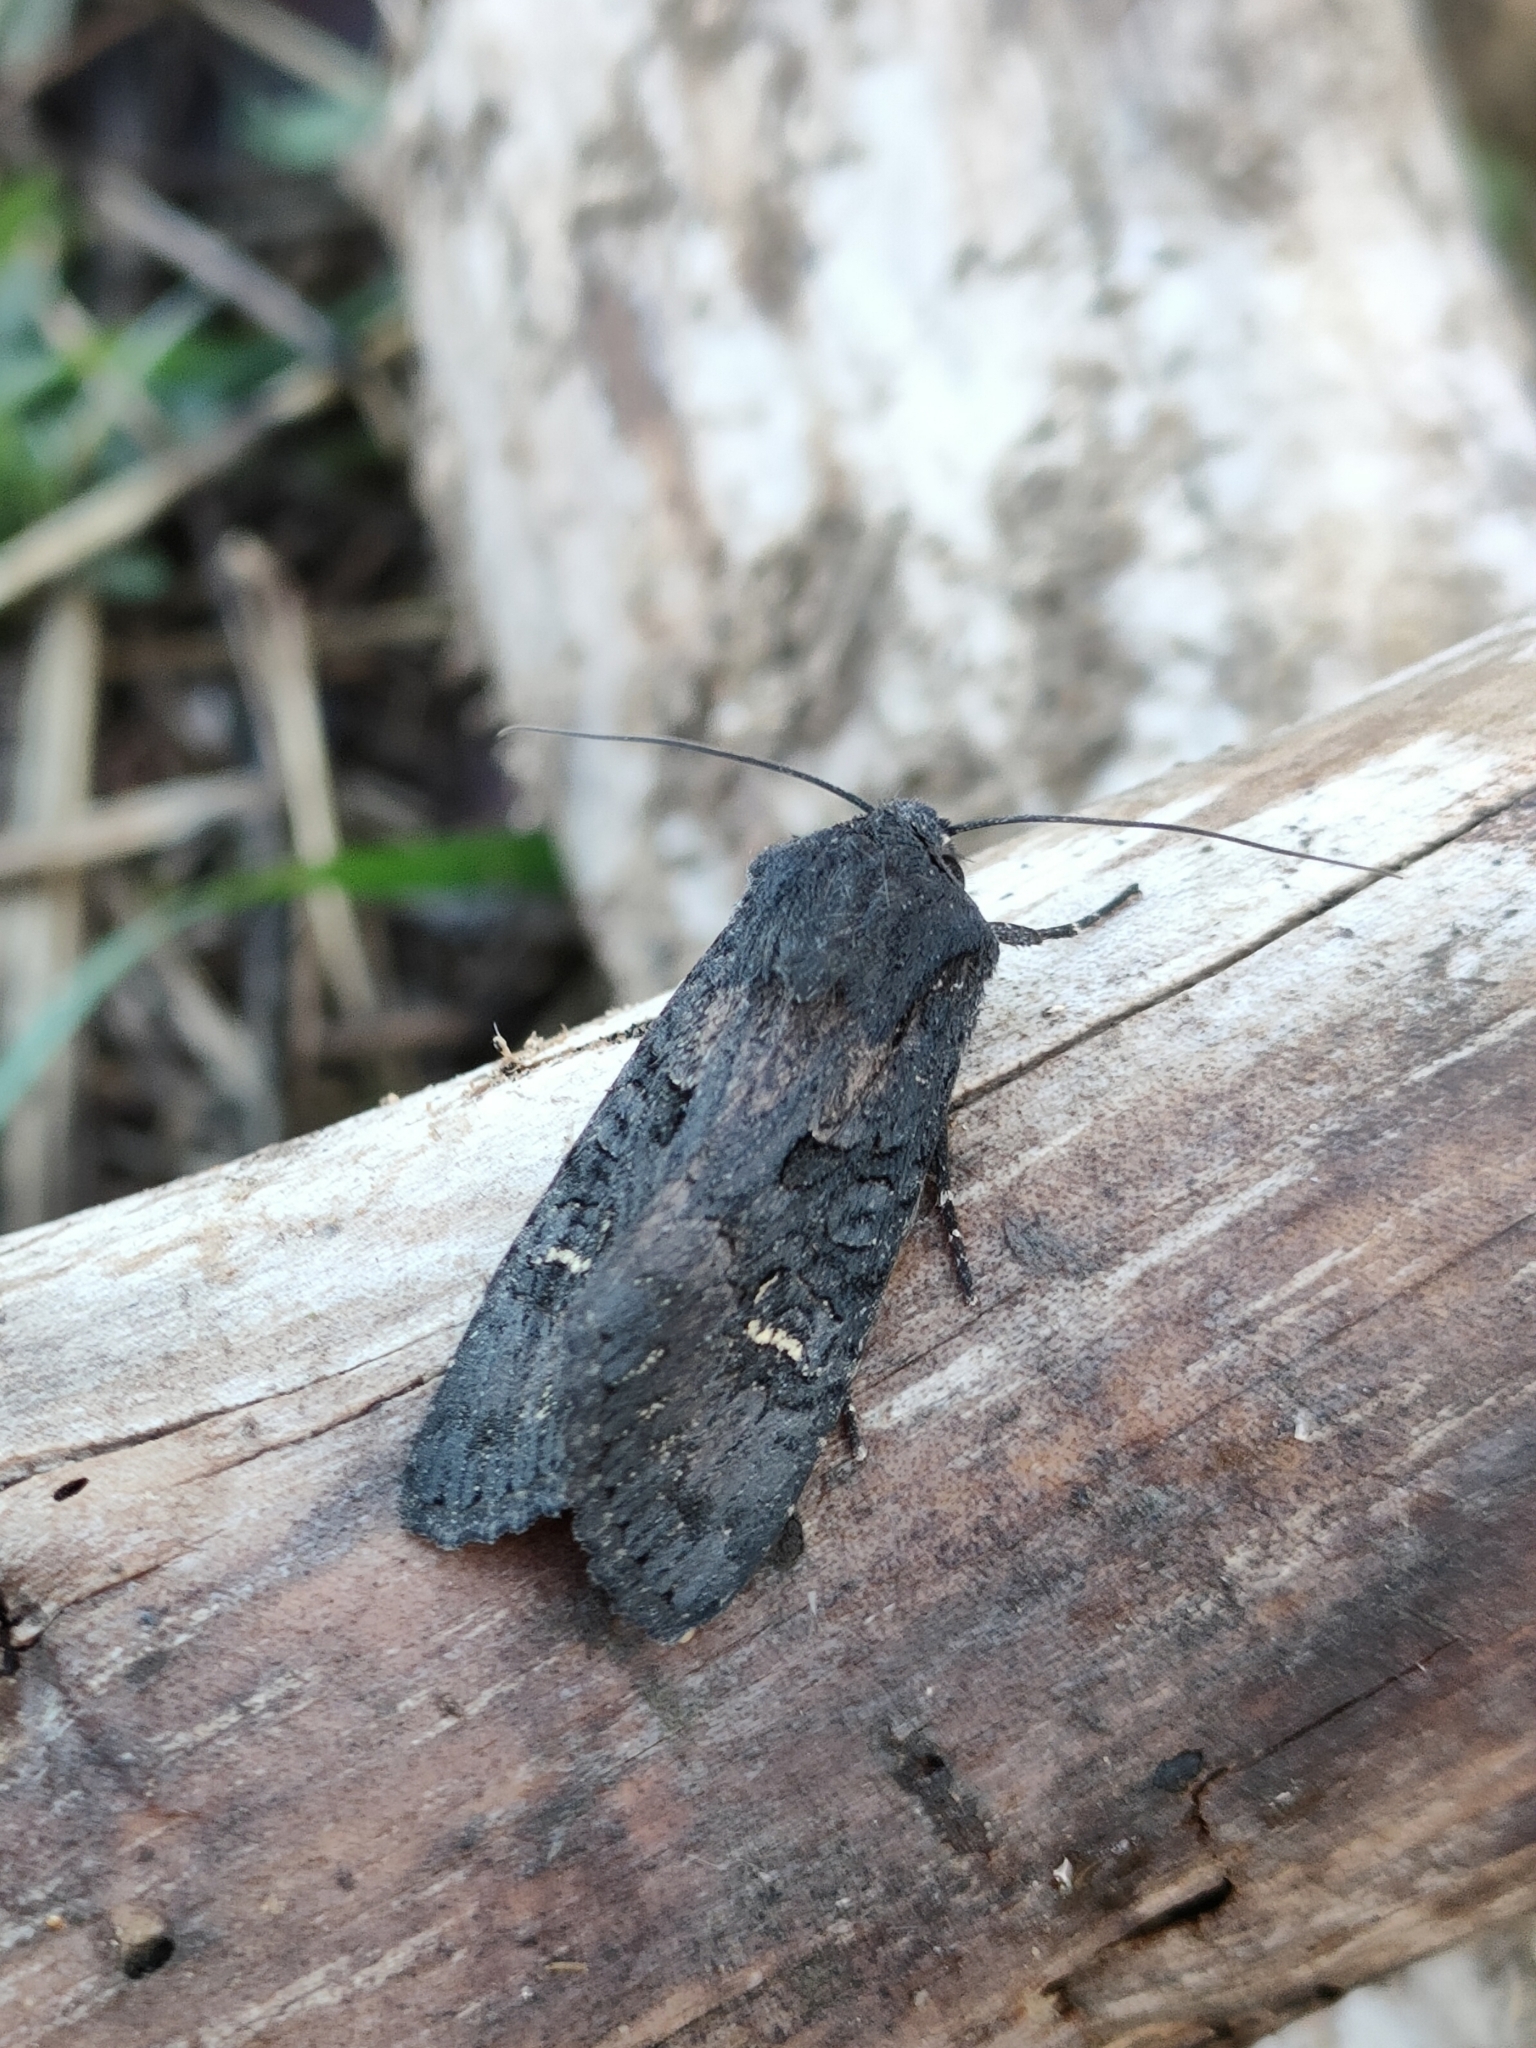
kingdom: Animalia
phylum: Arthropoda
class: Insecta
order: Lepidoptera
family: Noctuidae
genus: Aporophyla
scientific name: Aporophyla nigra
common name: Black rustic
